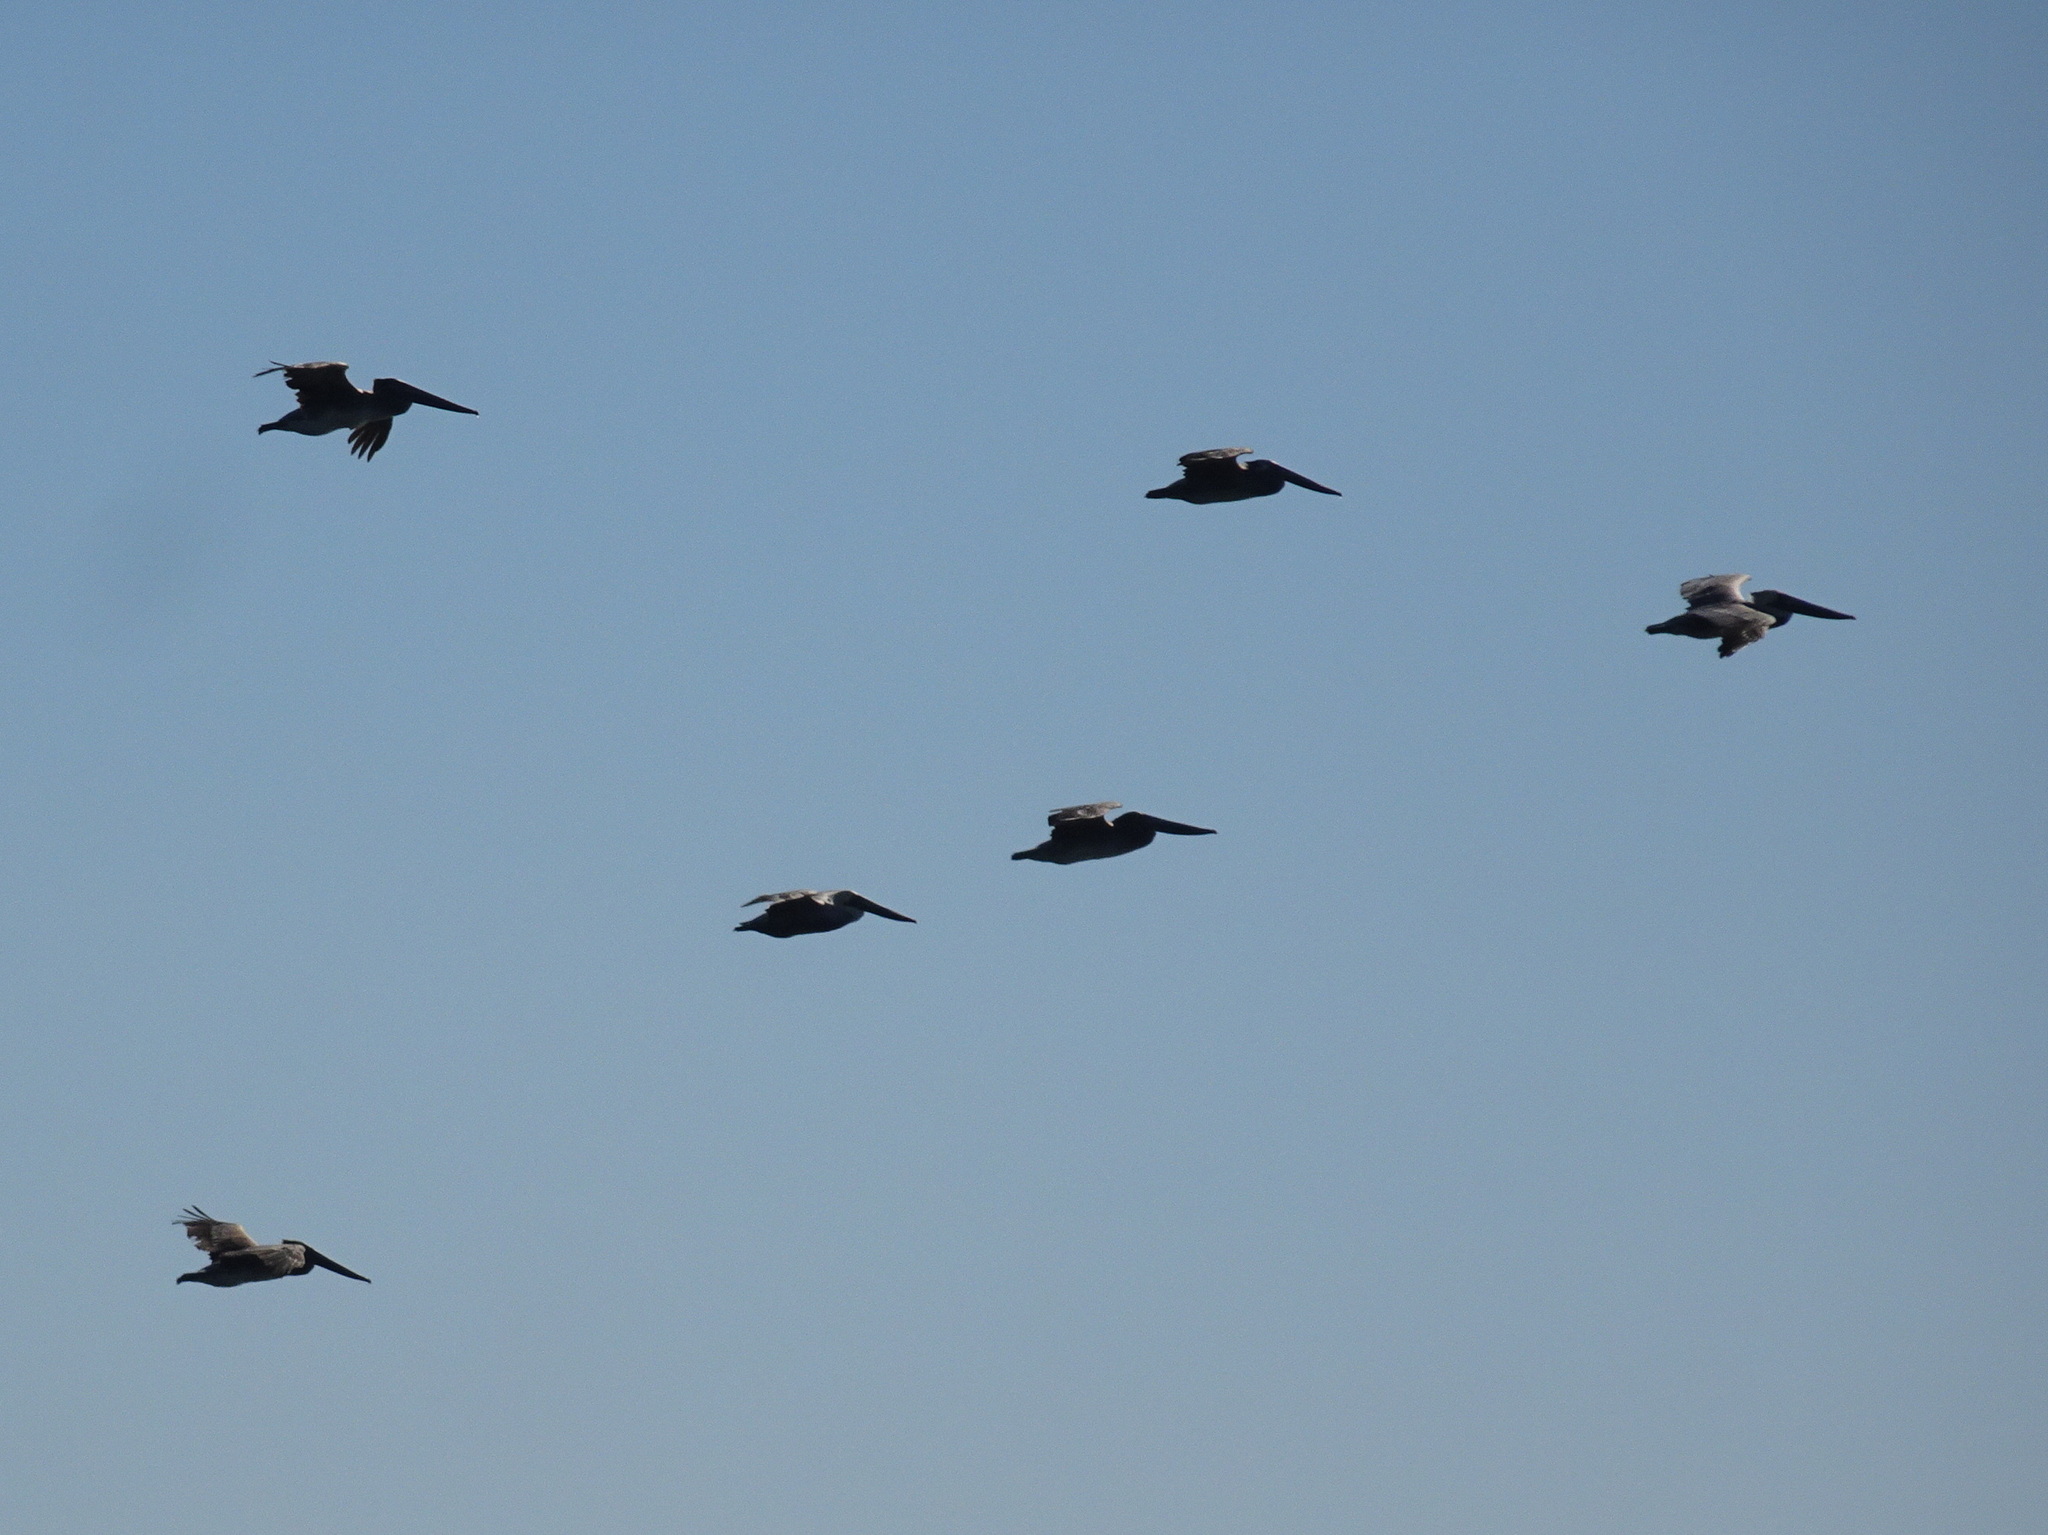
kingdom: Animalia
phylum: Chordata
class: Aves
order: Pelecaniformes
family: Pelecanidae
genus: Pelecanus
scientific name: Pelecanus occidentalis
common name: Brown pelican
